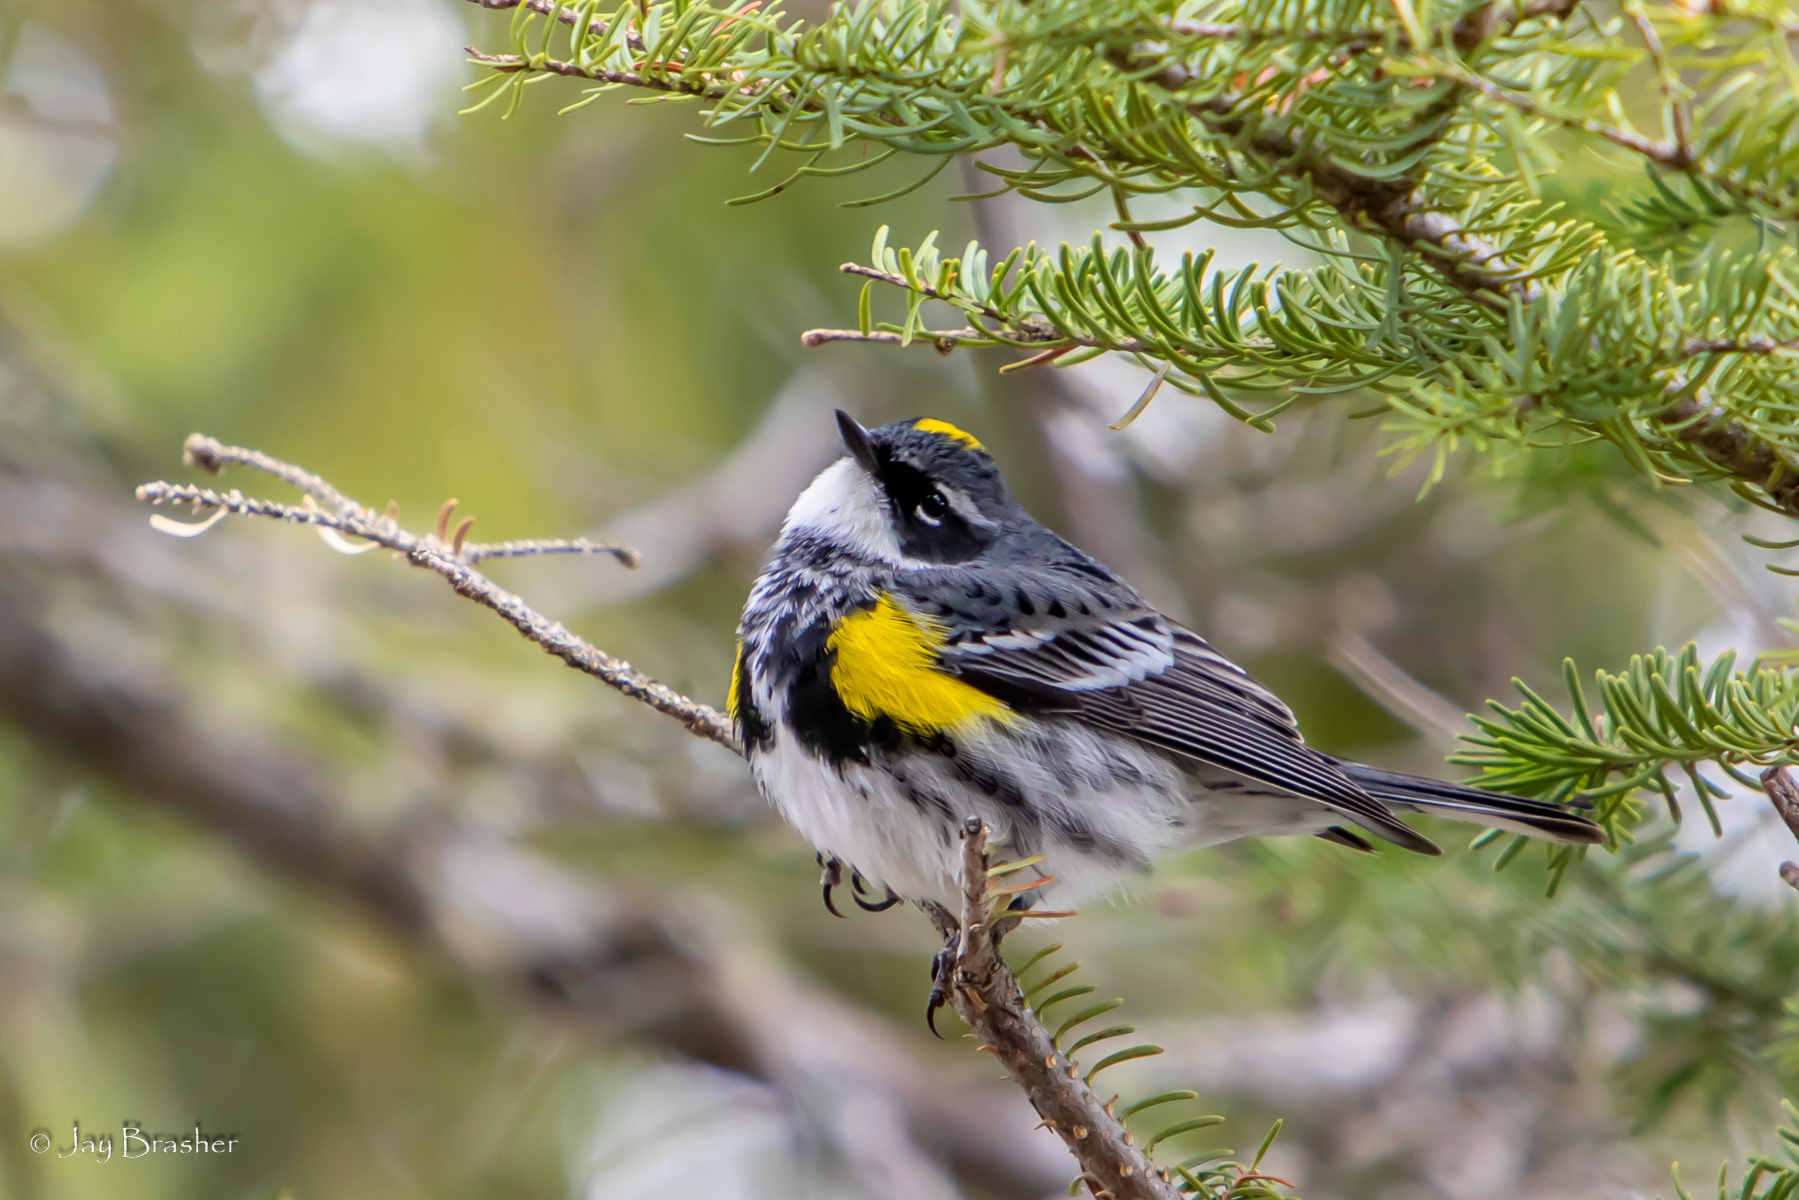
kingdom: Animalia
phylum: Chordata
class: Aves
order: Passeriformes
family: Parulidae
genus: Setophaga
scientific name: Setophaga coronata
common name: Myrtle warbler
